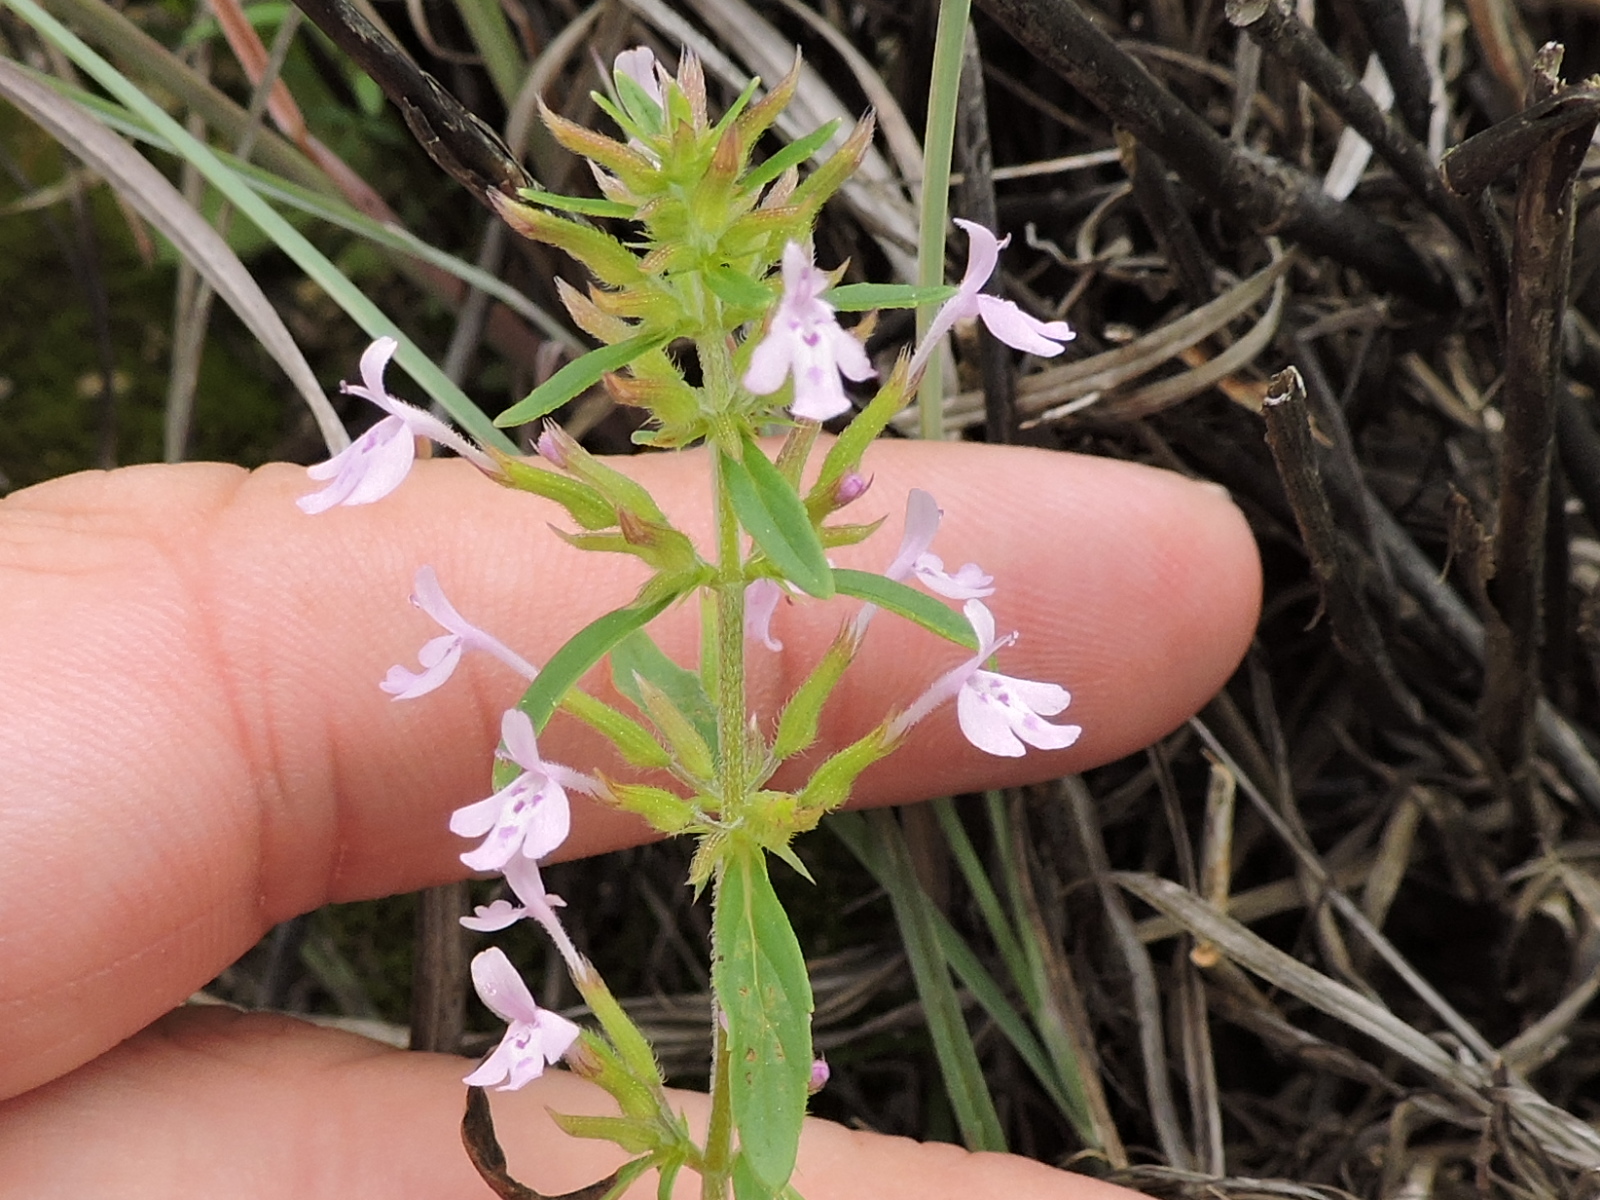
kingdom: Plantae
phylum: Tracheophyta
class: Magnoliopsida
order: Lamiales
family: Lamiaceae
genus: Hedeoma
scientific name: Hedeoma acinoides
